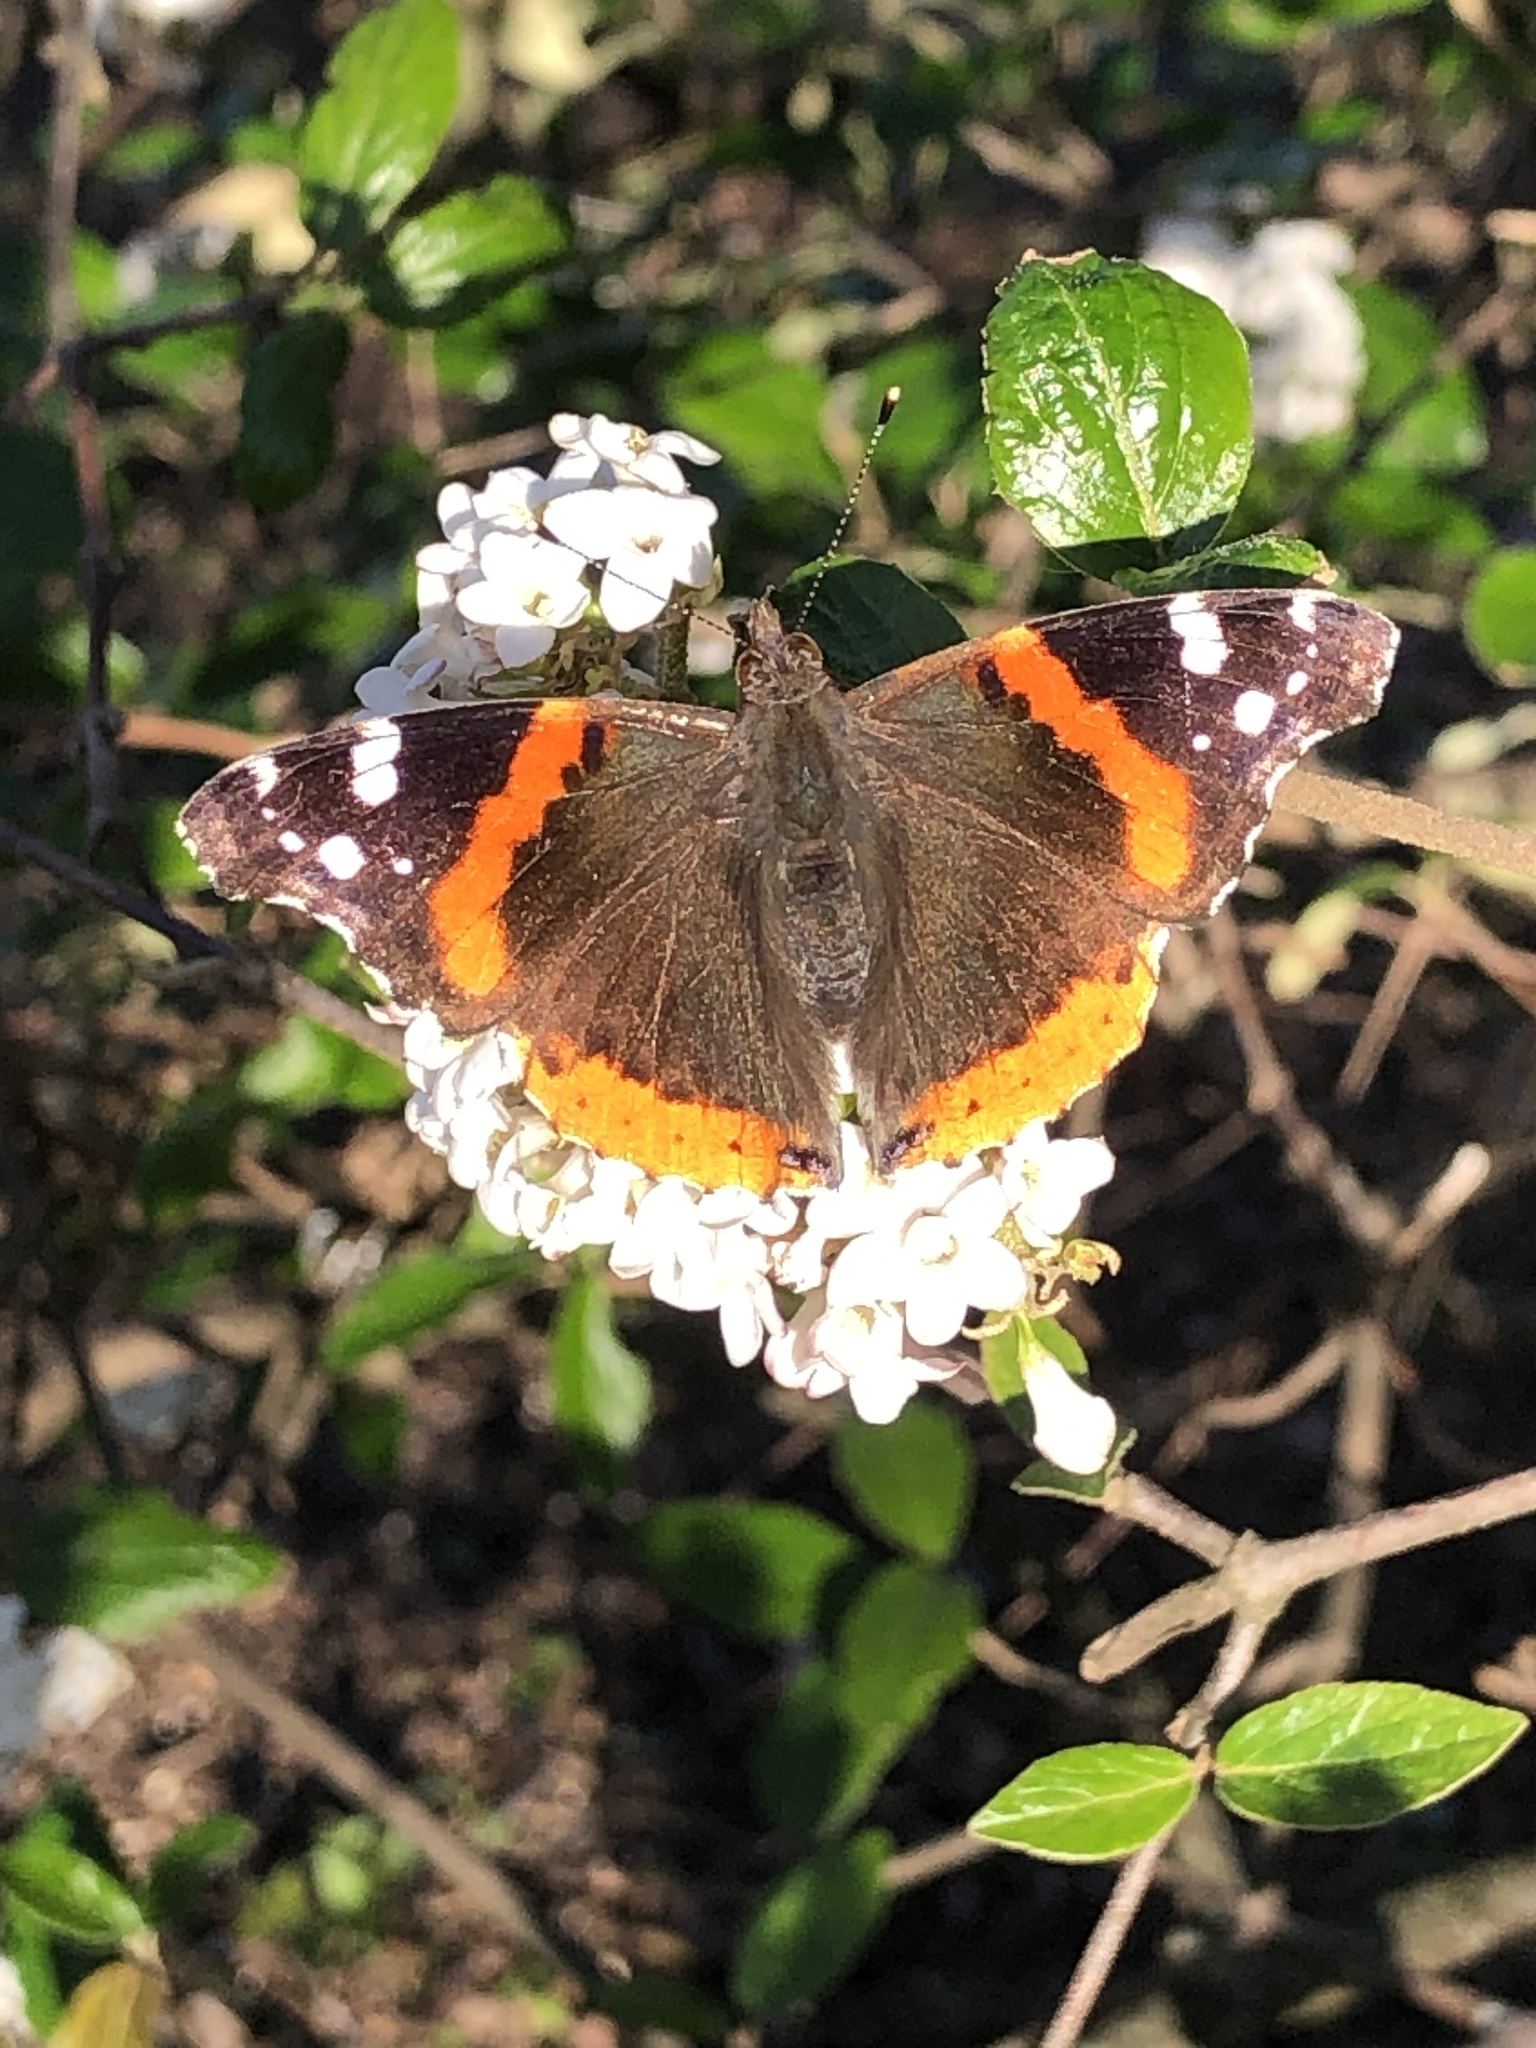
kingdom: Animalia
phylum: Arthropoda
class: Insecta
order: Lepidoptera
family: Nymphalidae
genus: Vanessa
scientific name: Vanessa atalanta
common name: Red admiral
